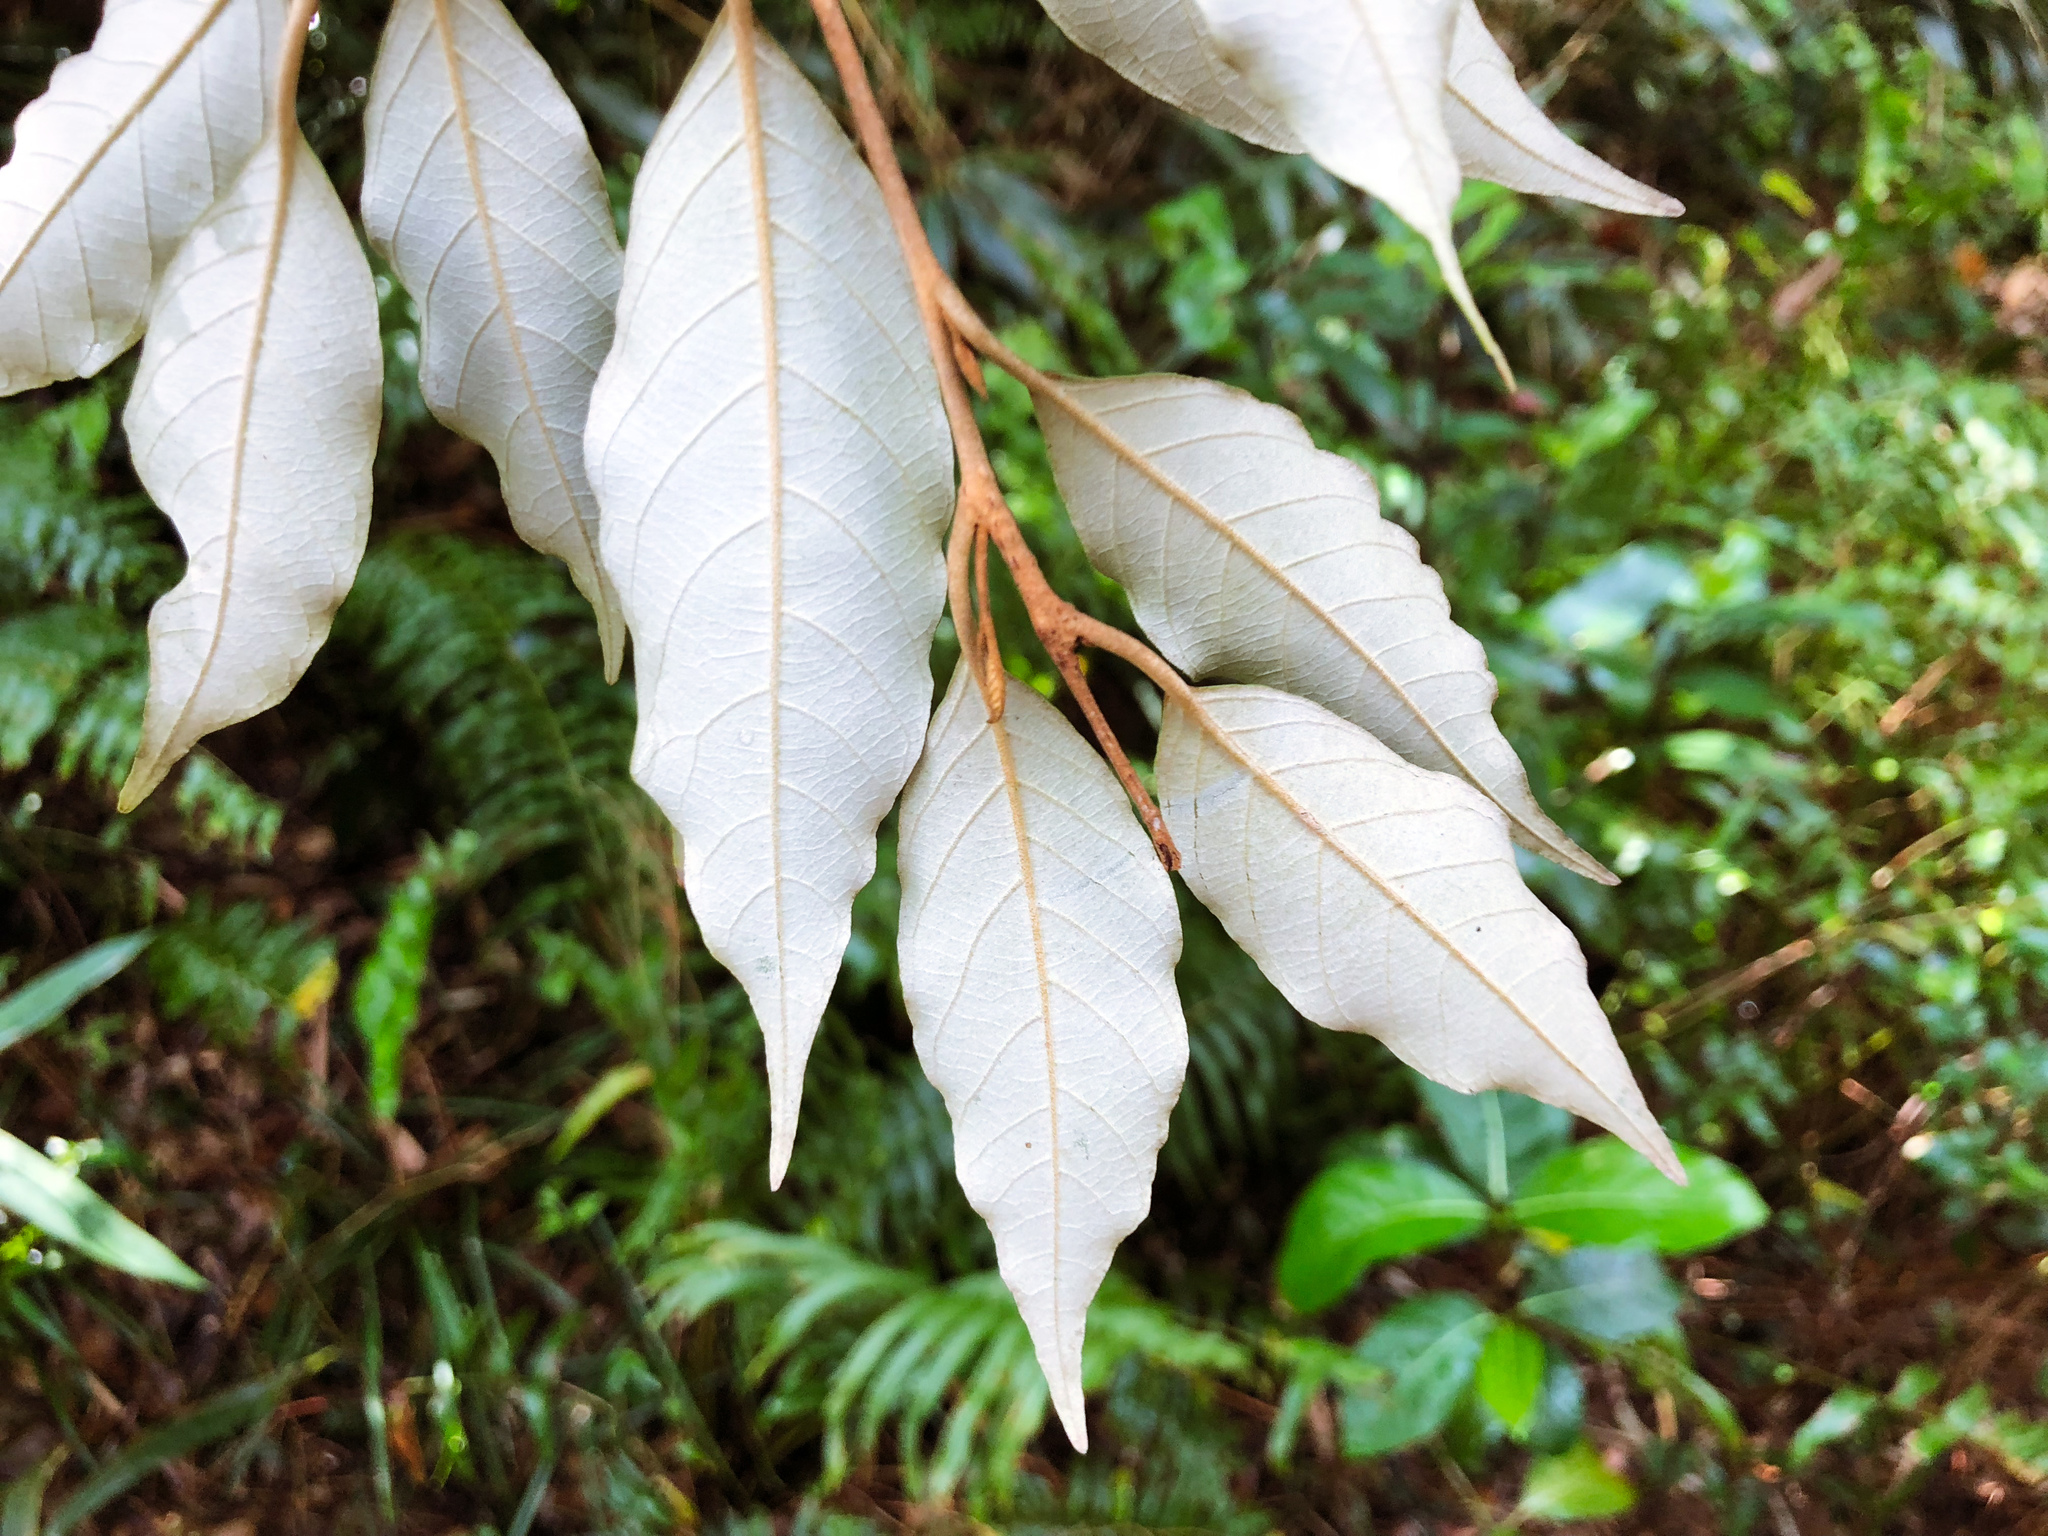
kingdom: Plantae
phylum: Tracheophyta
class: Magnoliopsida
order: Ericales
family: Styracaceae
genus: Styrax
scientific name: Styrax suberifolius
